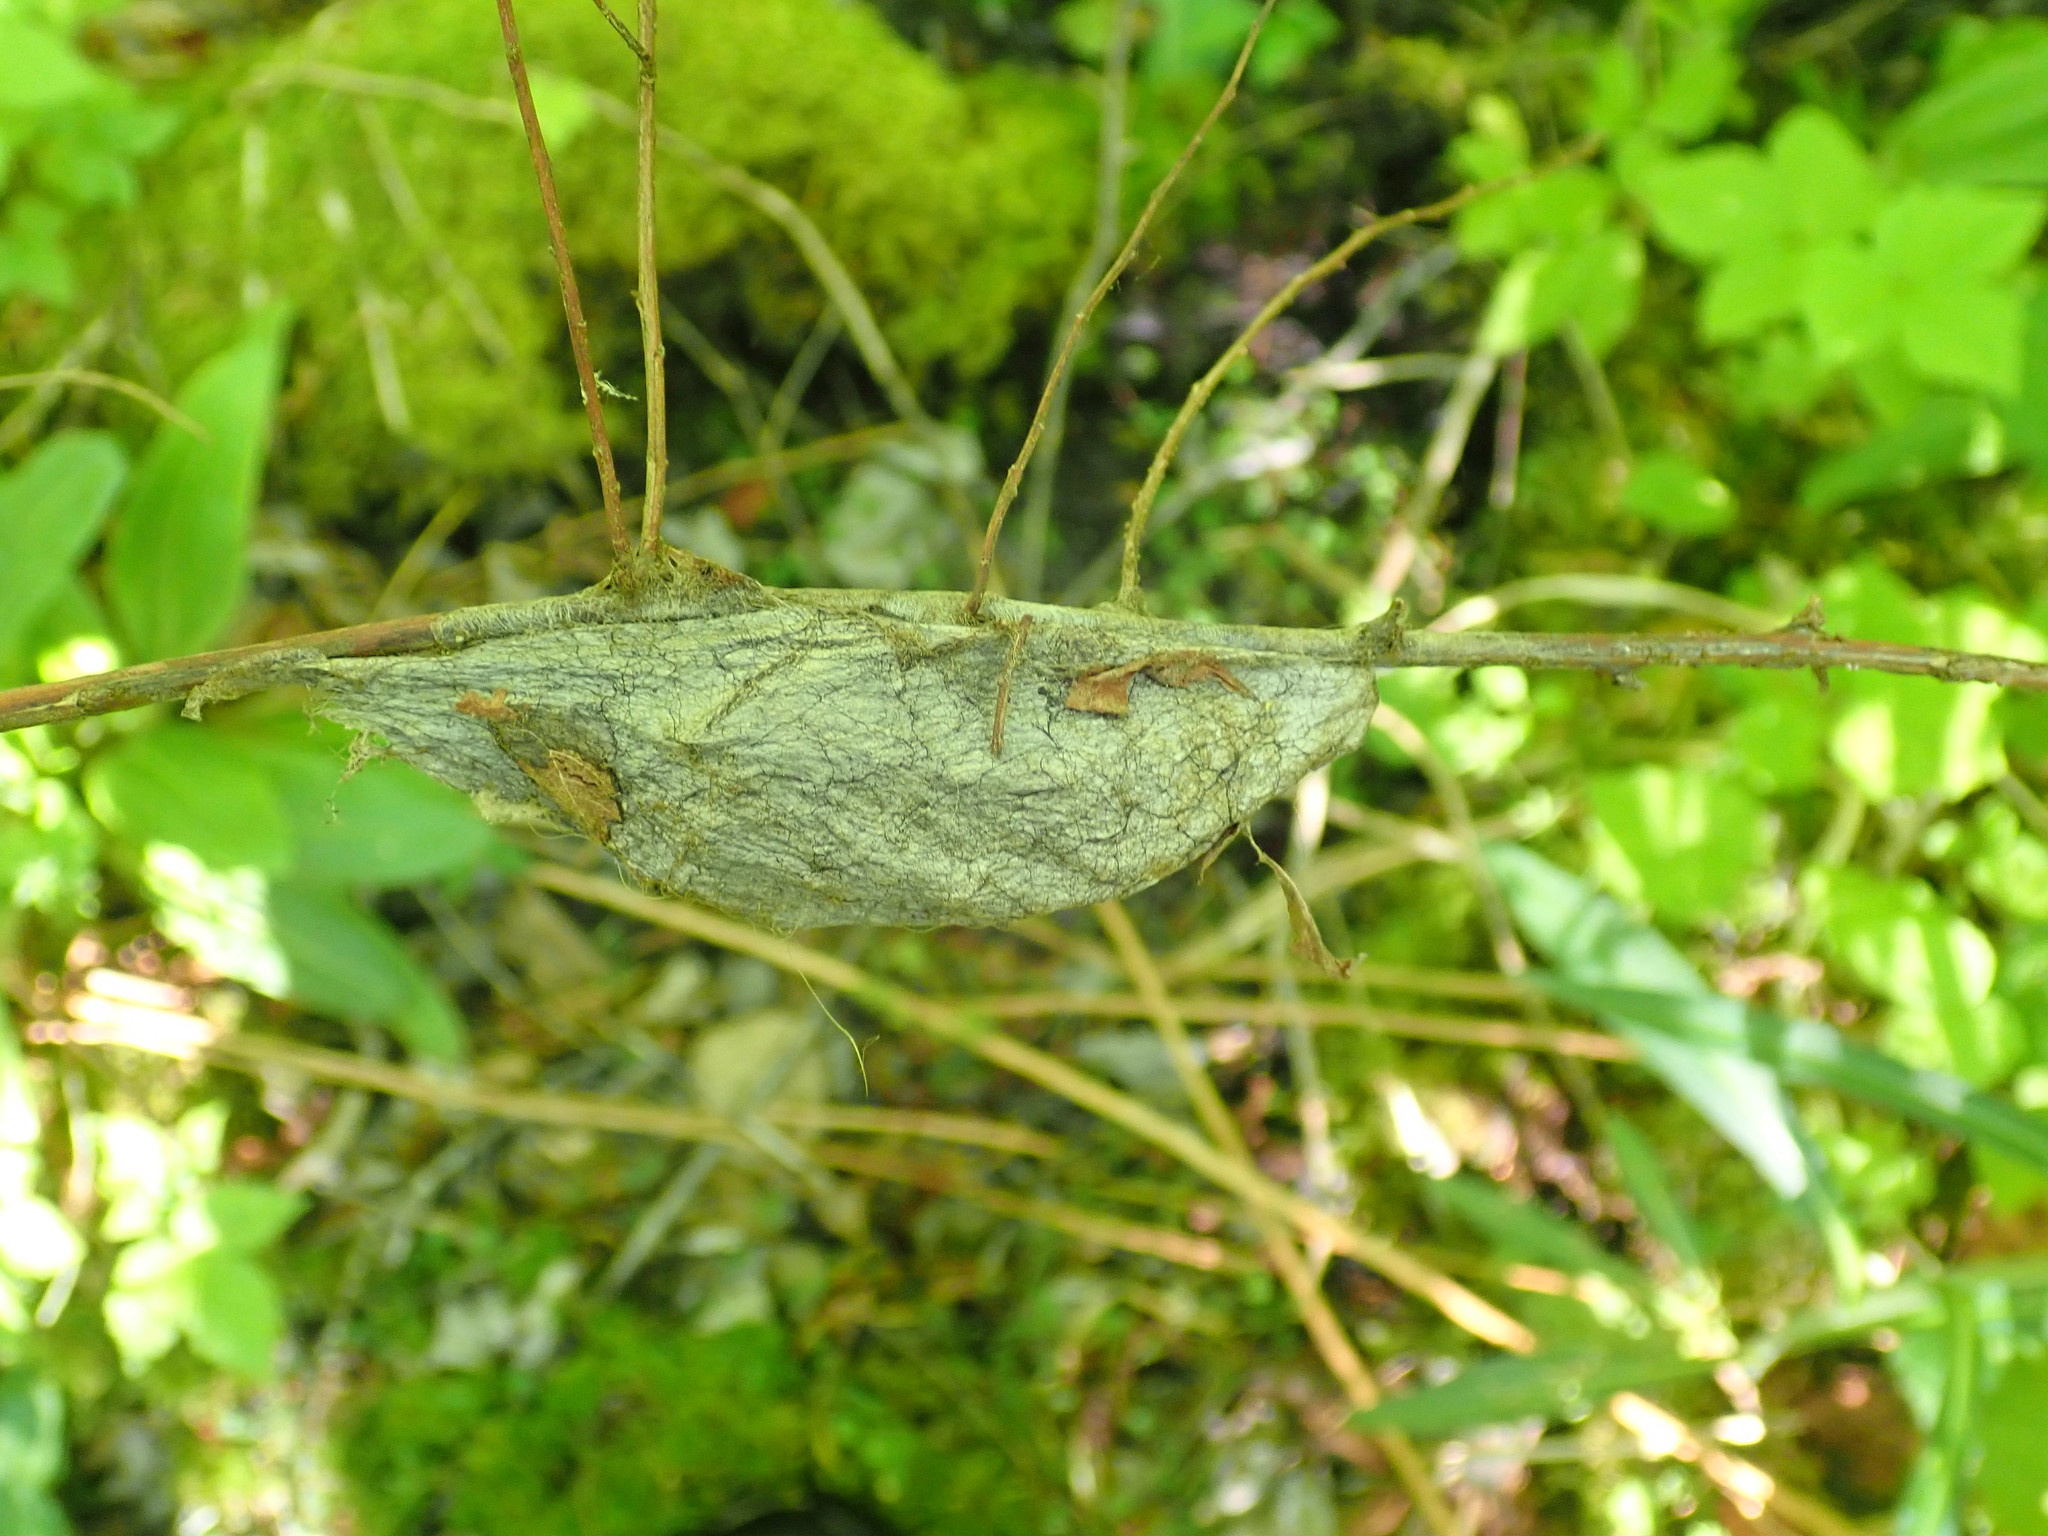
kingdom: Animalia
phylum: Arthropoda
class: Insecta
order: Lepidoptera
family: Saturniidae
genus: Hyalophora
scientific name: Hyalophora cecropia
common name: Cecropia silkmoth
